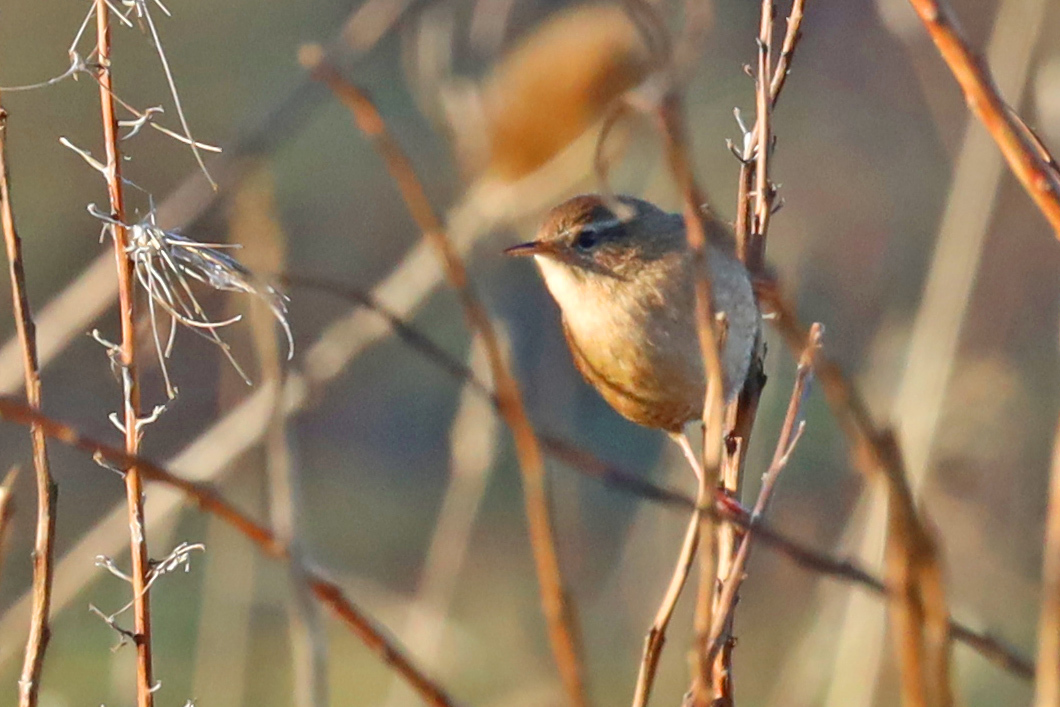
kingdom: Animalia
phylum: Chordata
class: Aves
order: Passeriformes
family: Troglodytidae
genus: Troglodytes
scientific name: Troglodytes troglodytes
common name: Eurasian wren
